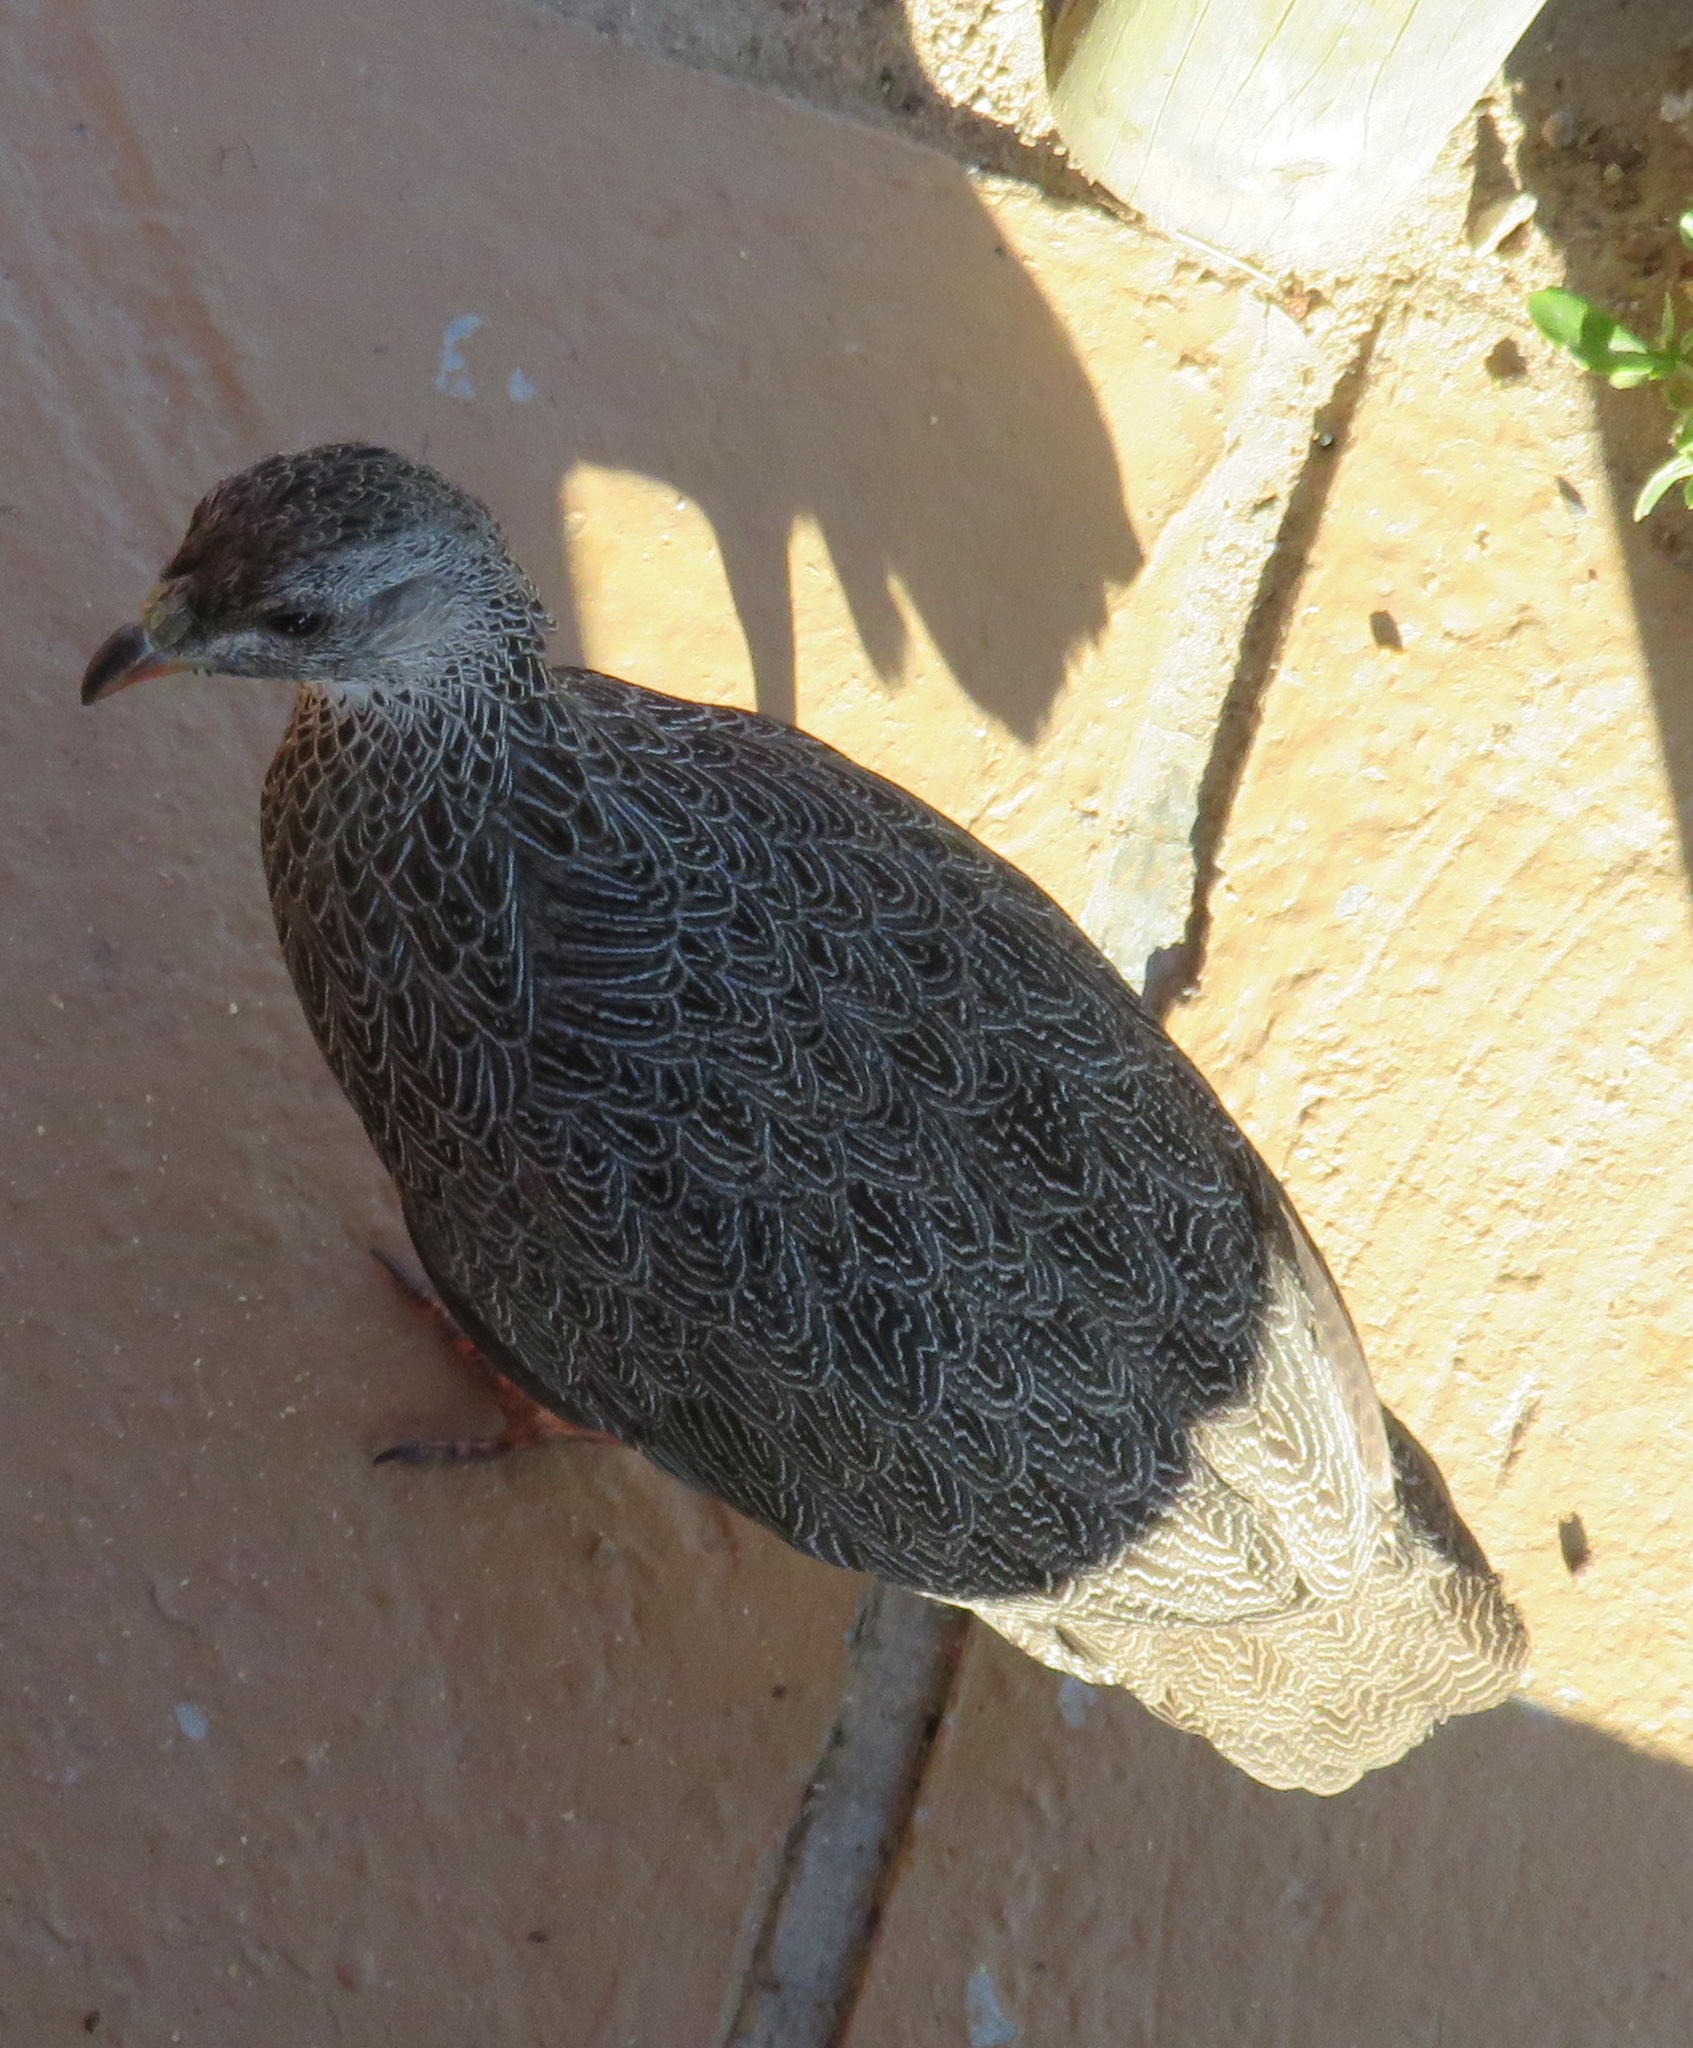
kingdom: Animalia
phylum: Chordata
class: Aves
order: Galliformes
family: Phasianidae
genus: Pternistis
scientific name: Pternistis capensis
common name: Cape spurfowl
